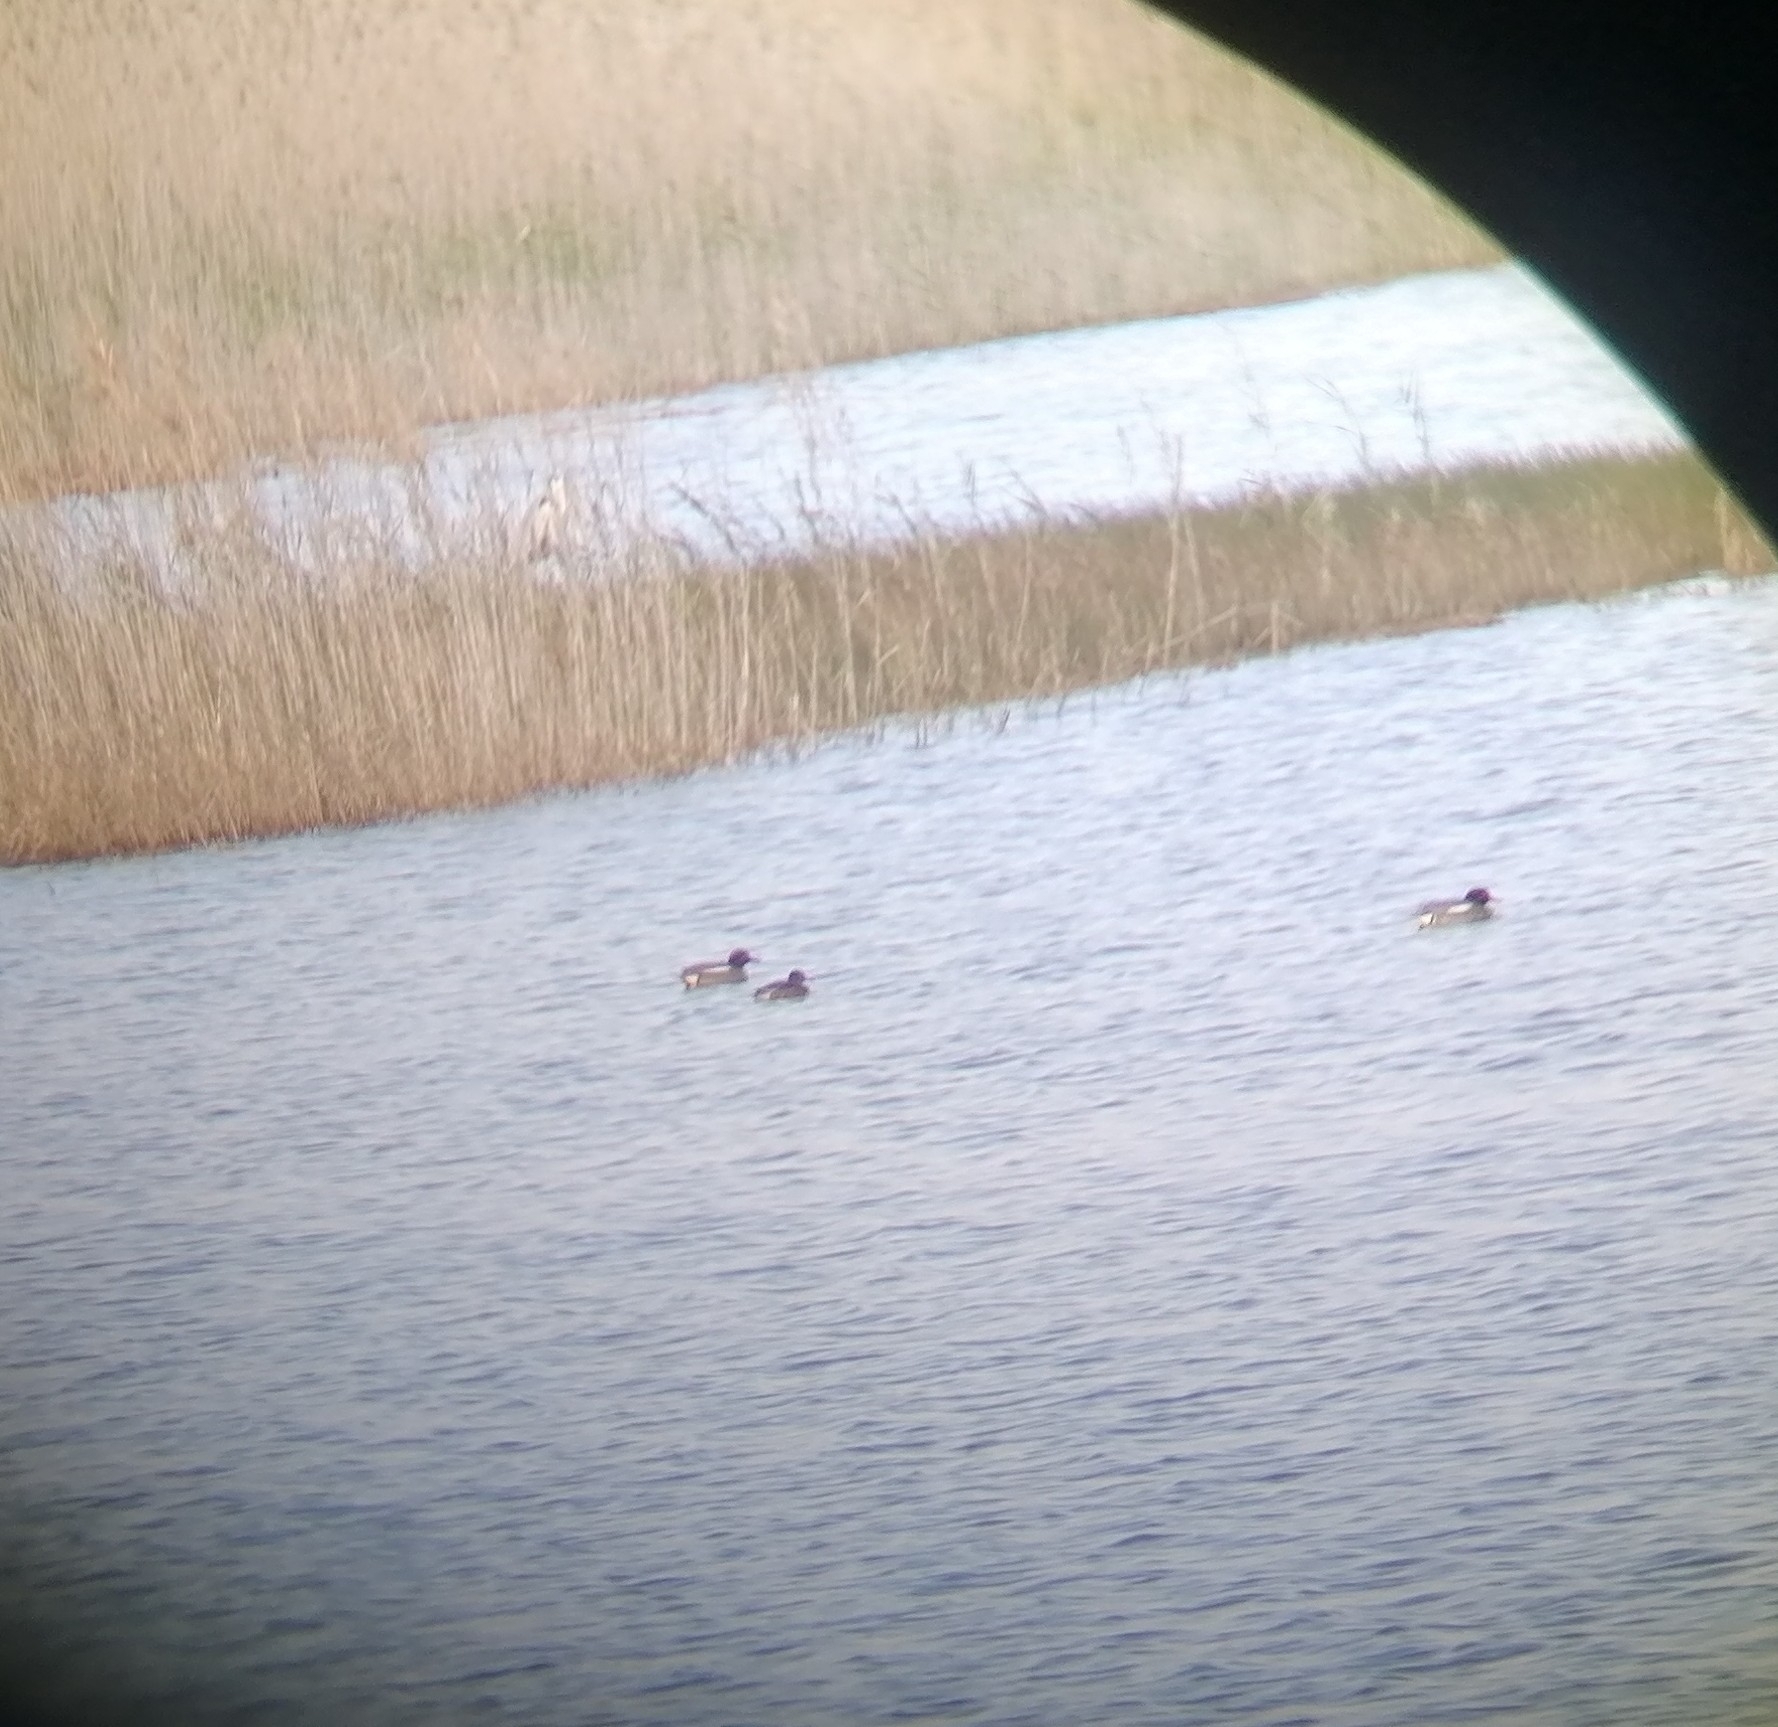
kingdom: Animalia
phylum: Chordata
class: Aves
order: Anseriformes
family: Anatidae
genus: Anas
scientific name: Anas crecca
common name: Eurasian teal
